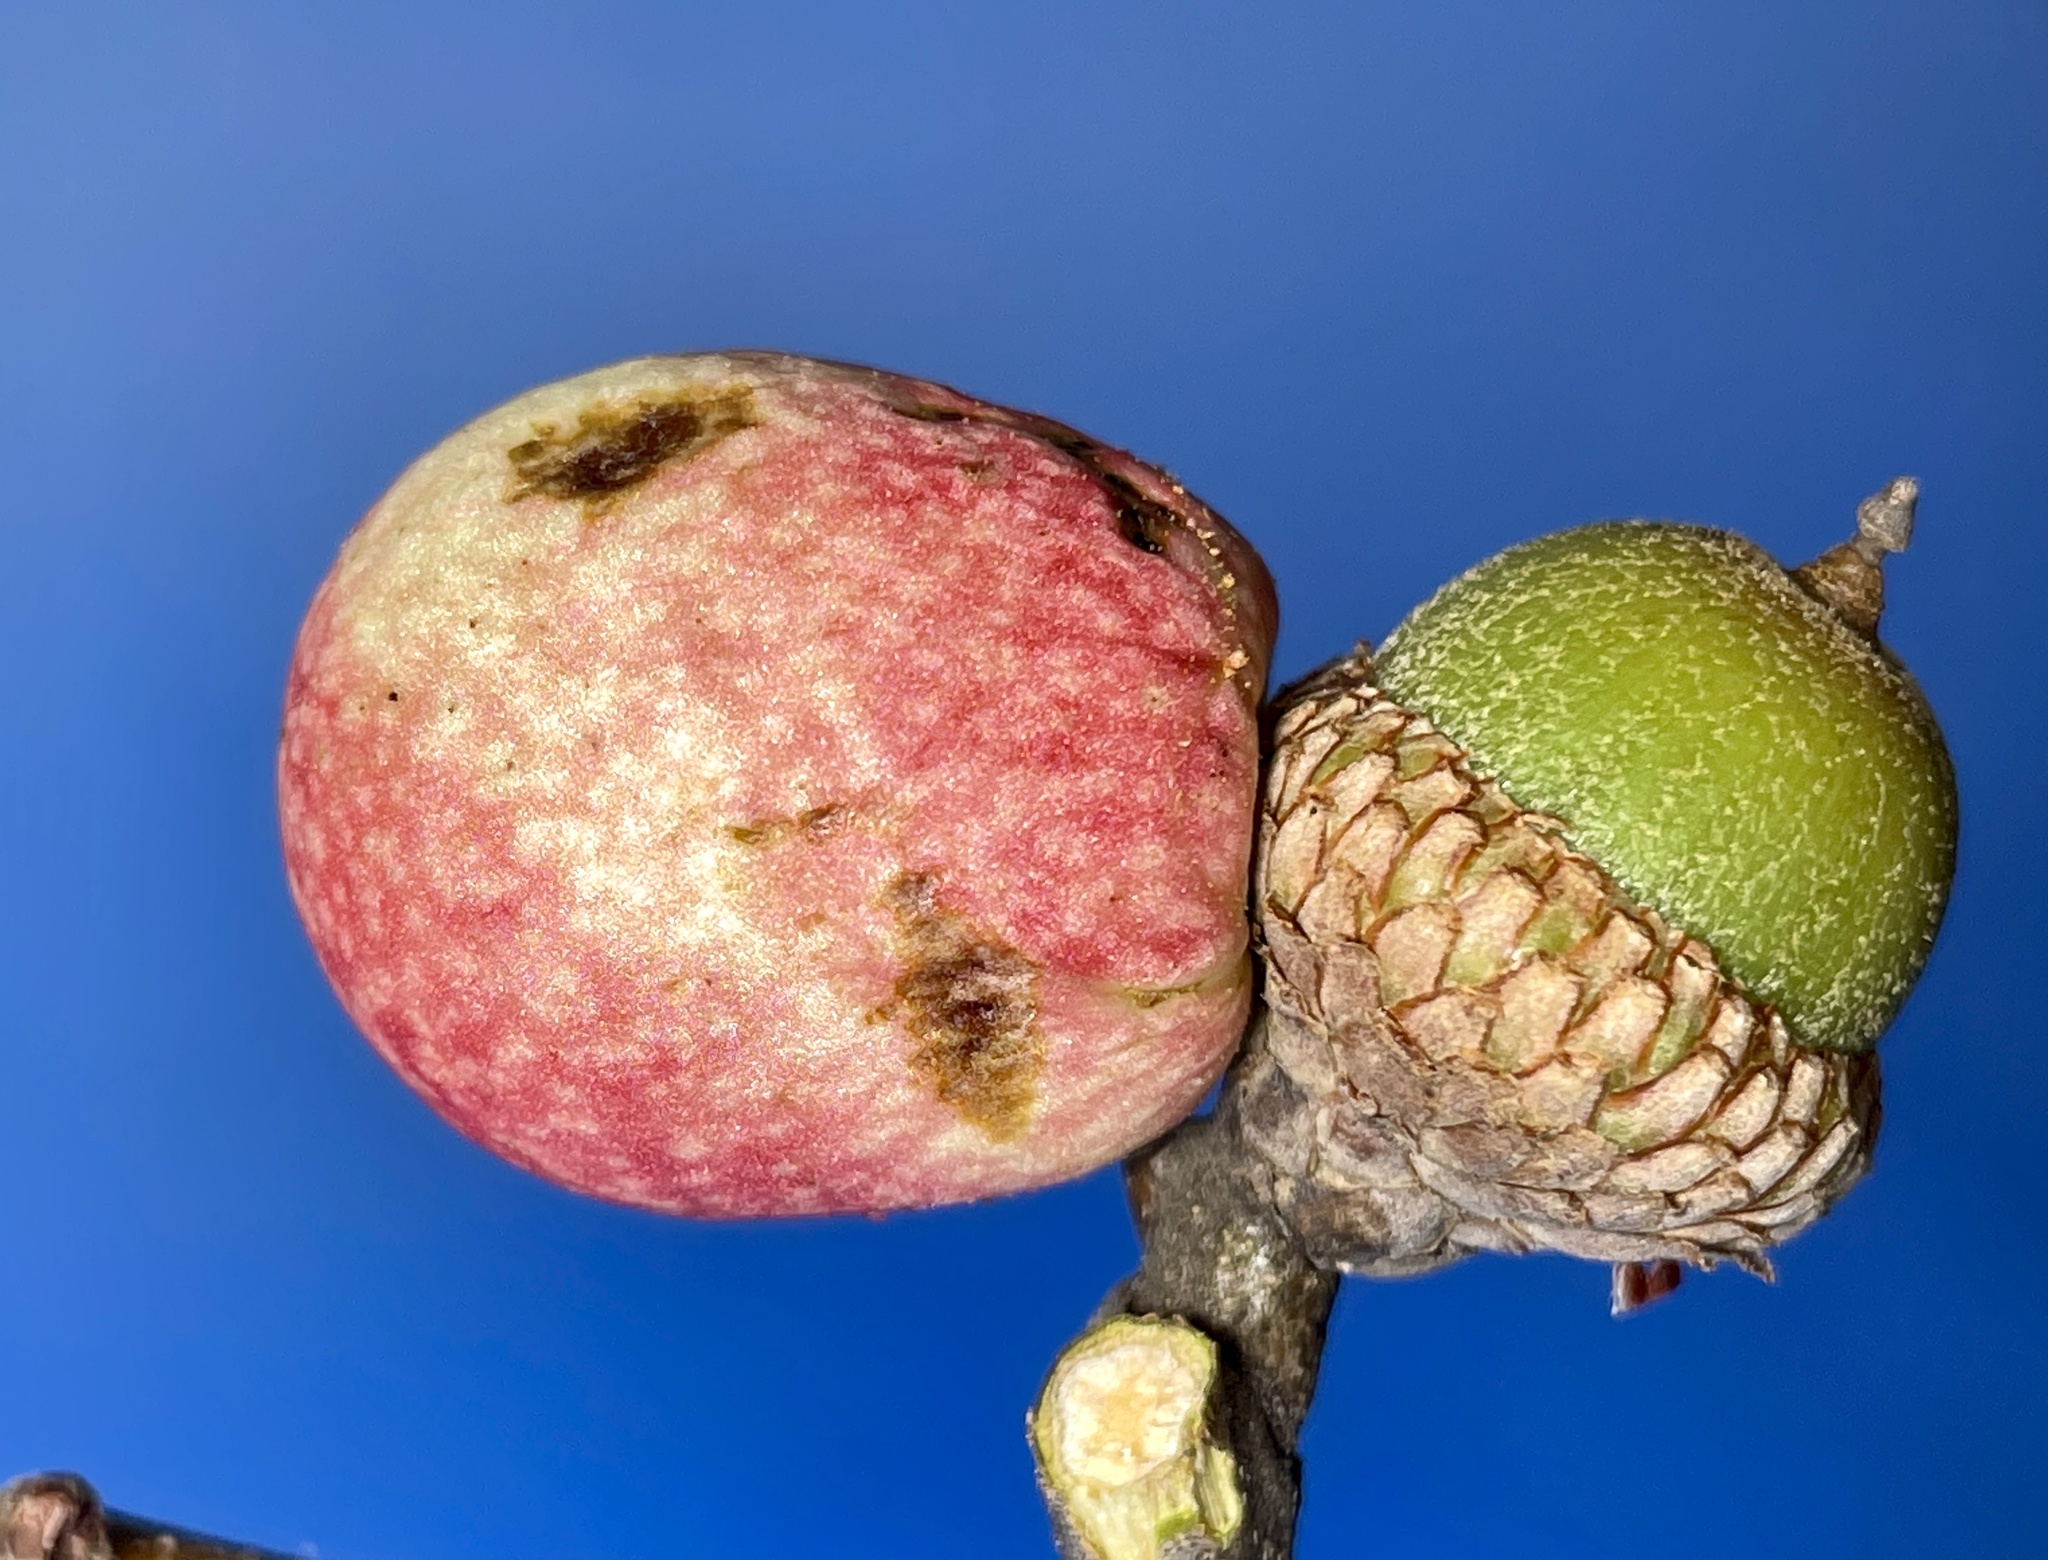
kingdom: Animalia
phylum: Arthropoda
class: Insecta
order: Hymenoptera
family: Cynipidae
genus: Amphibolips
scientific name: Amphibolips
